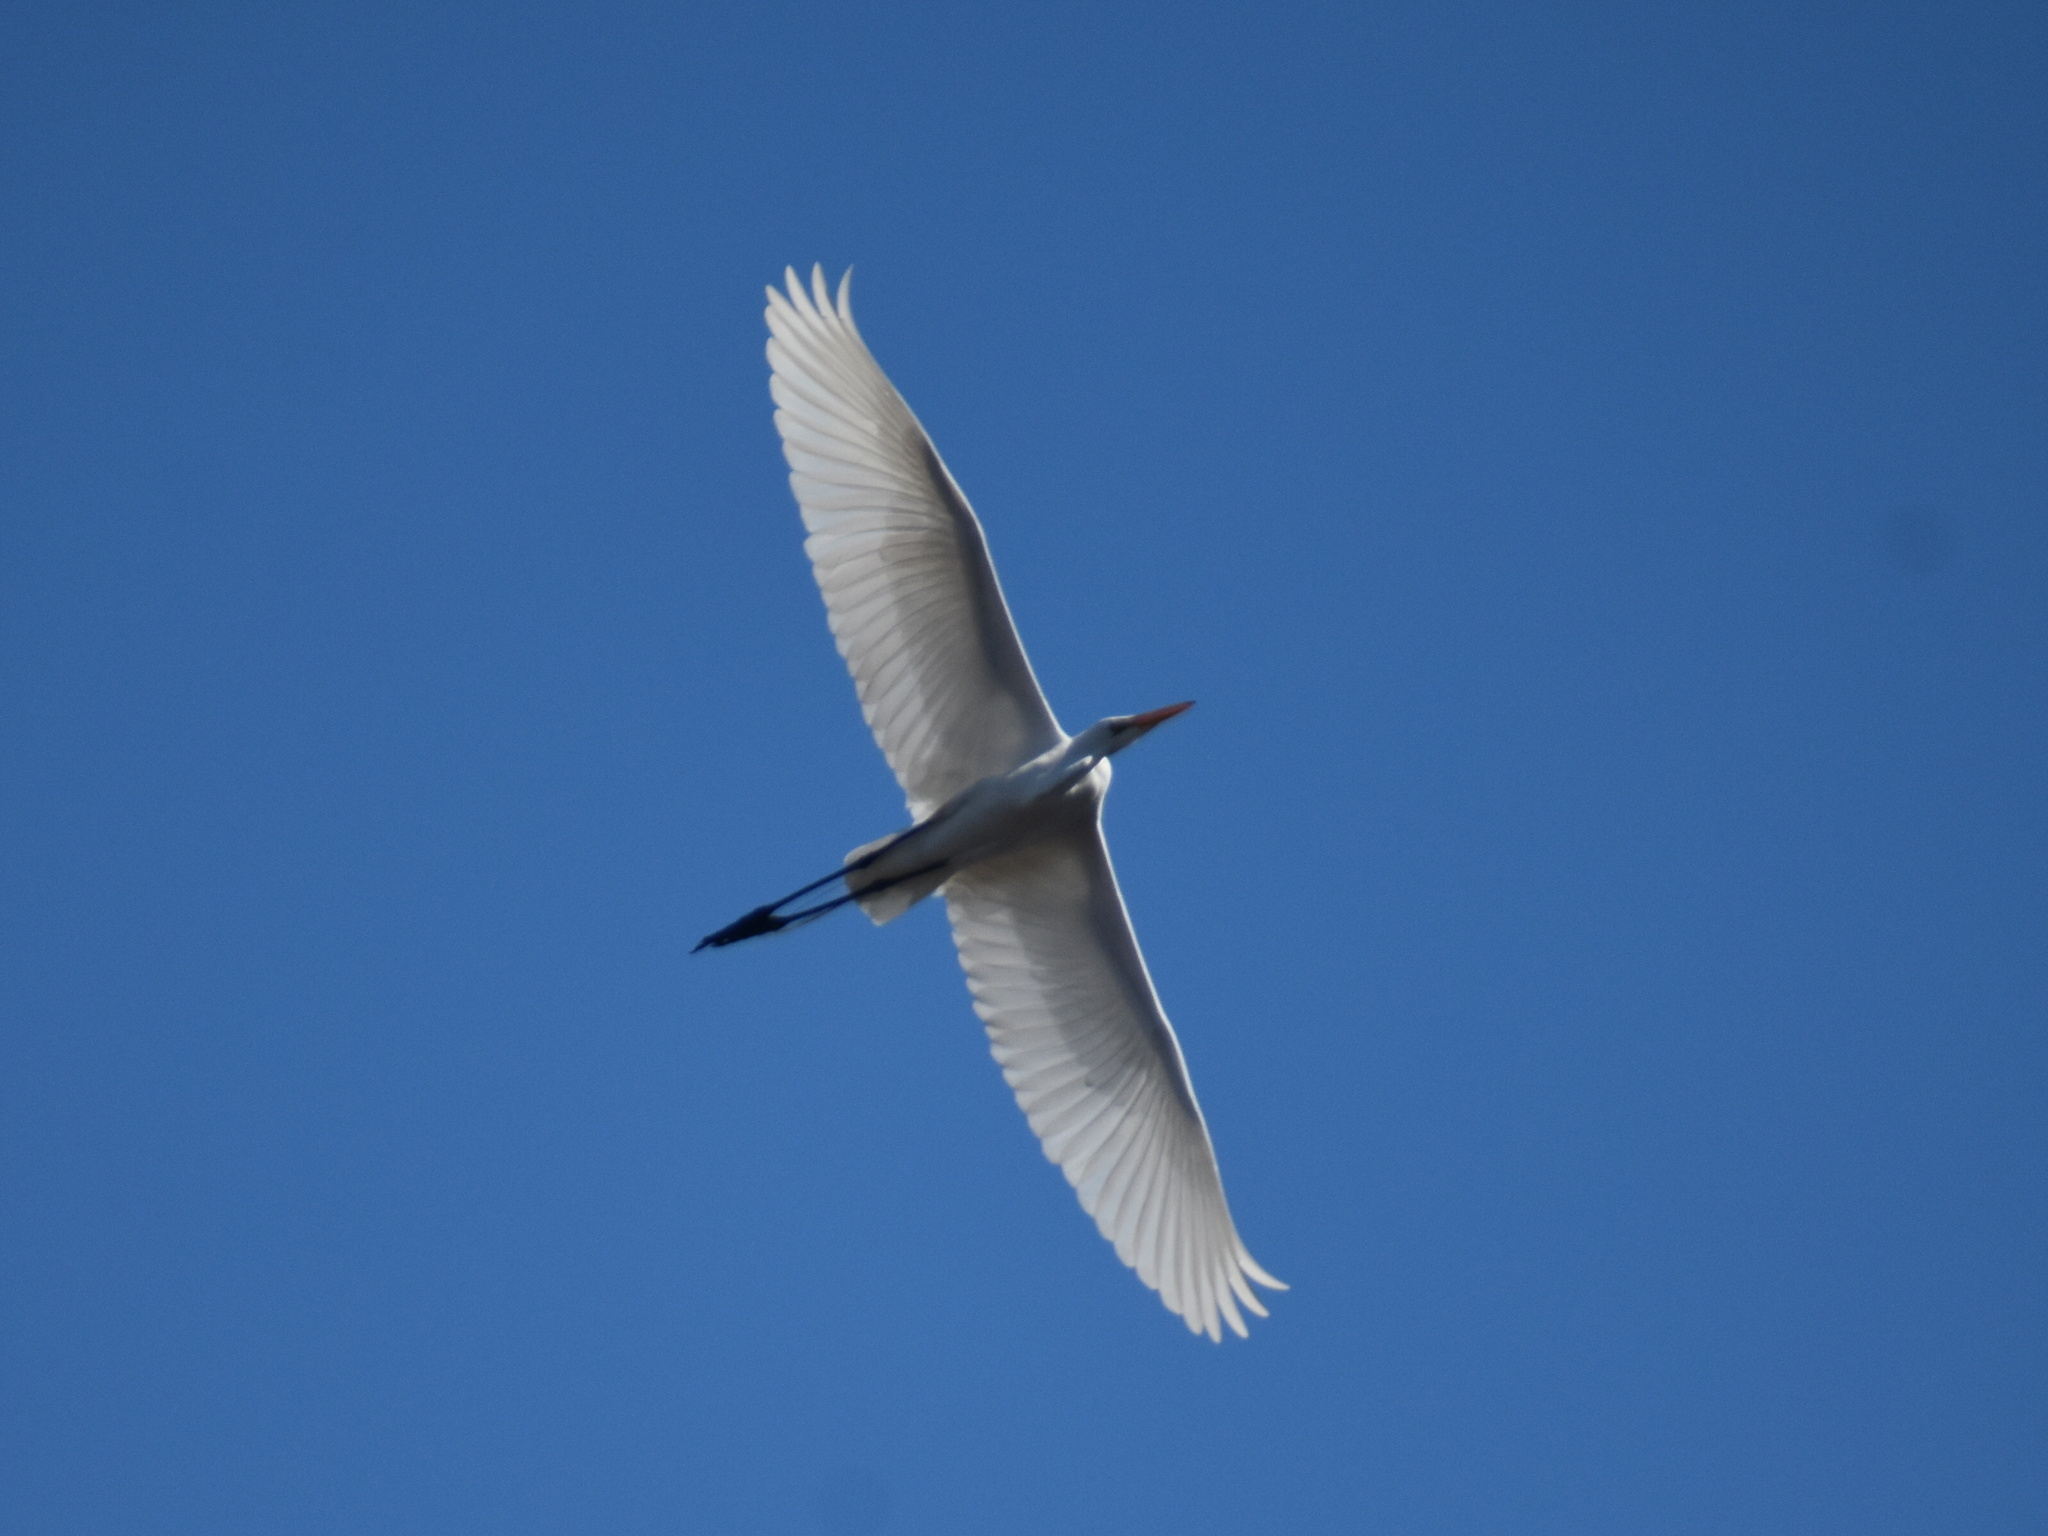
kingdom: Animalia
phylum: Chordata
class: Aves
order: Pelecaniformes
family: Ardeidae
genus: Ardea
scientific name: Ardea alba
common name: Great egret
